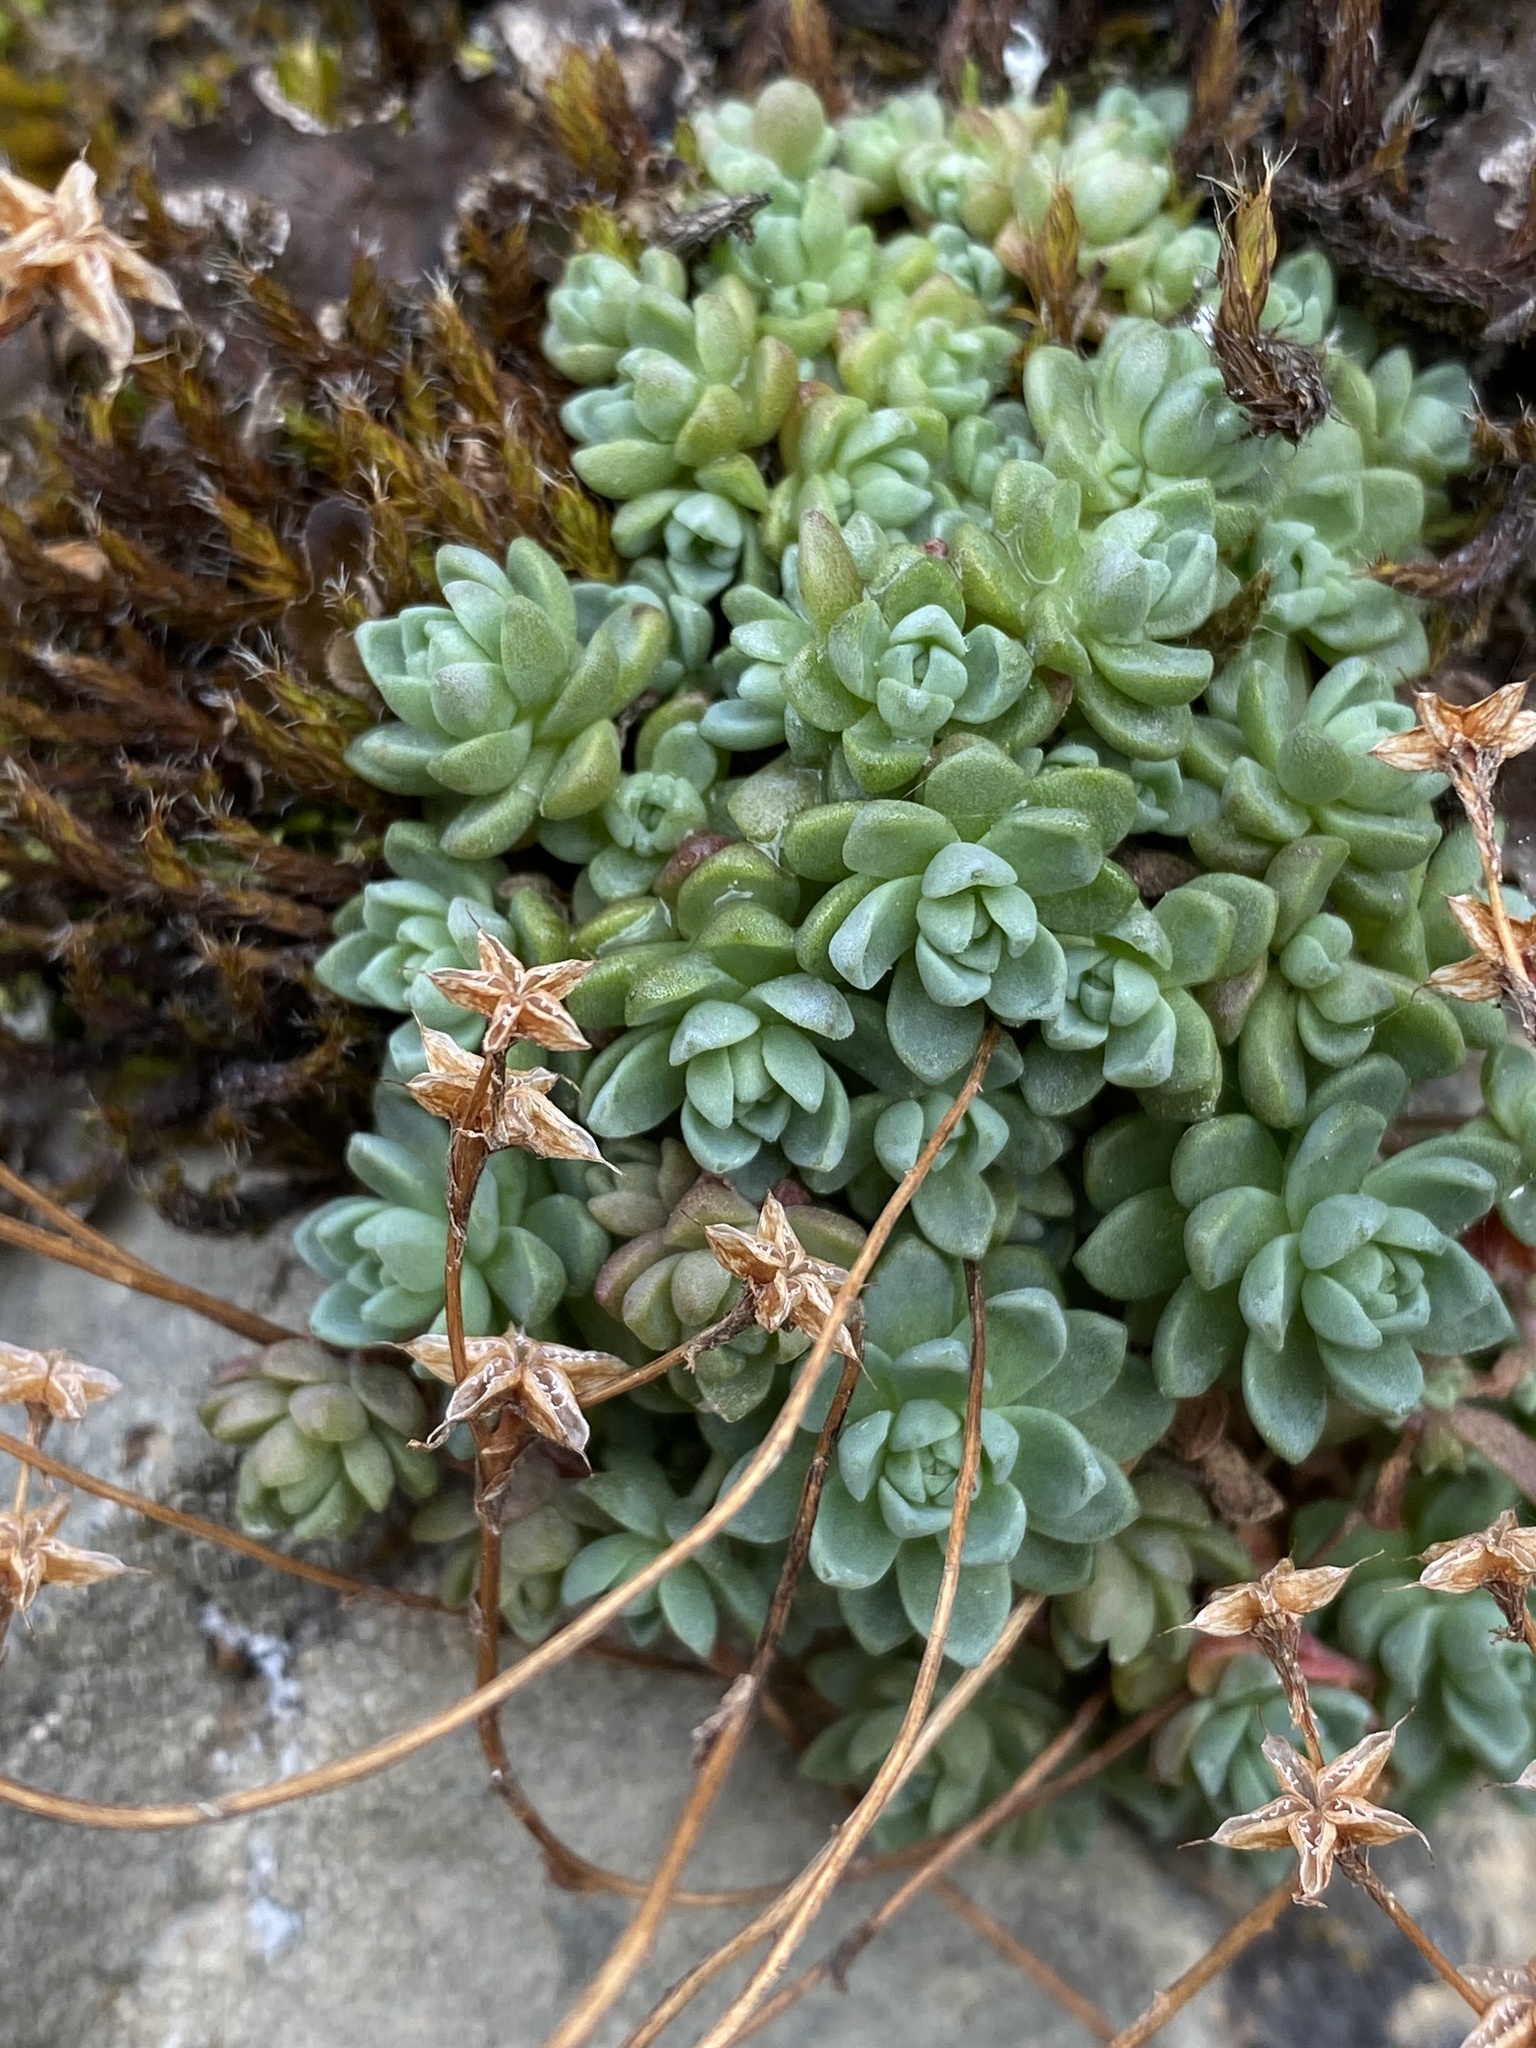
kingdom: Plantae
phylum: Tracheophyta
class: Magnoliopsida
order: Saxifragales
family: Crassulaceae
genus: Sedum
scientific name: Sedum leibergii
